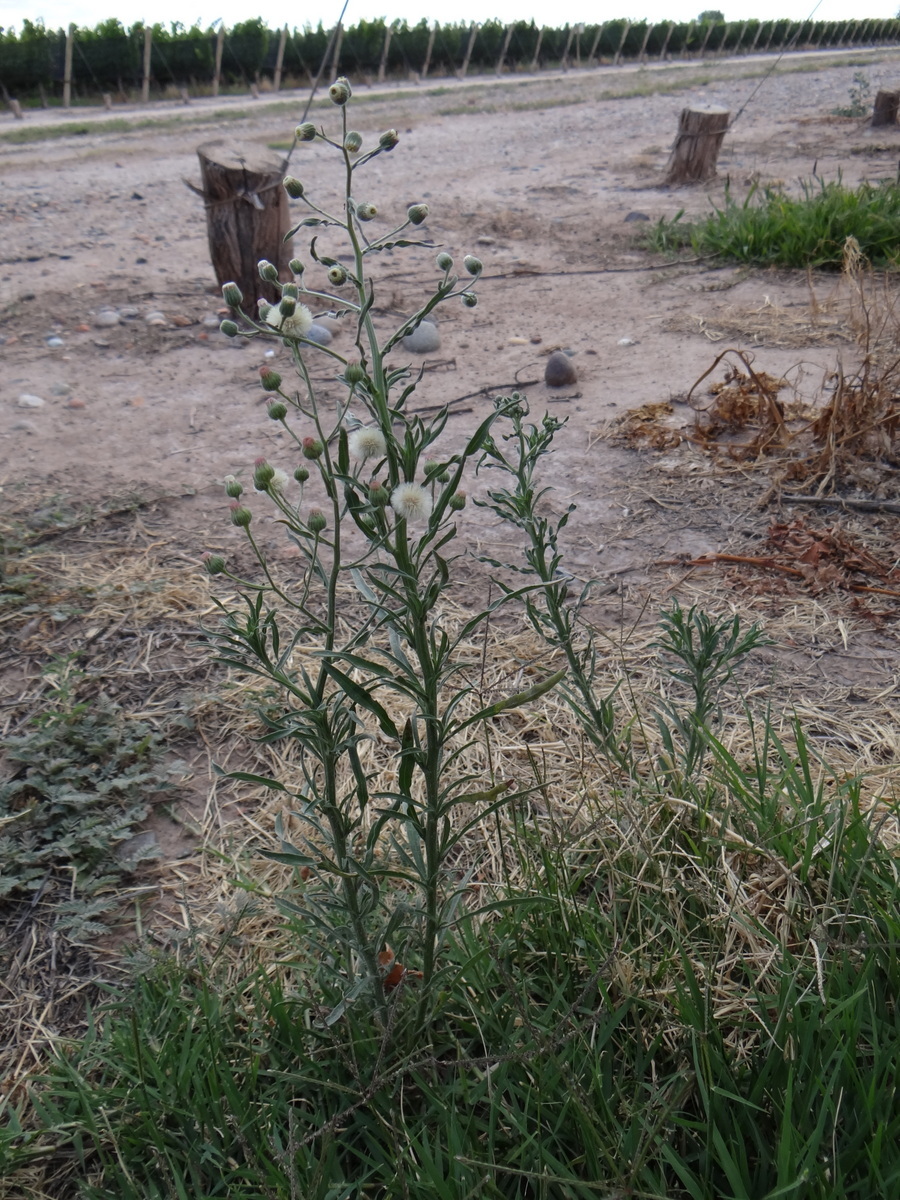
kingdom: Plantae
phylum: Tracheophyta
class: Magnoliopsida
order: Asterales
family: Asteraceae
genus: Erigeron
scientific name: Erigeron bonariensis
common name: Argentine fleabane
